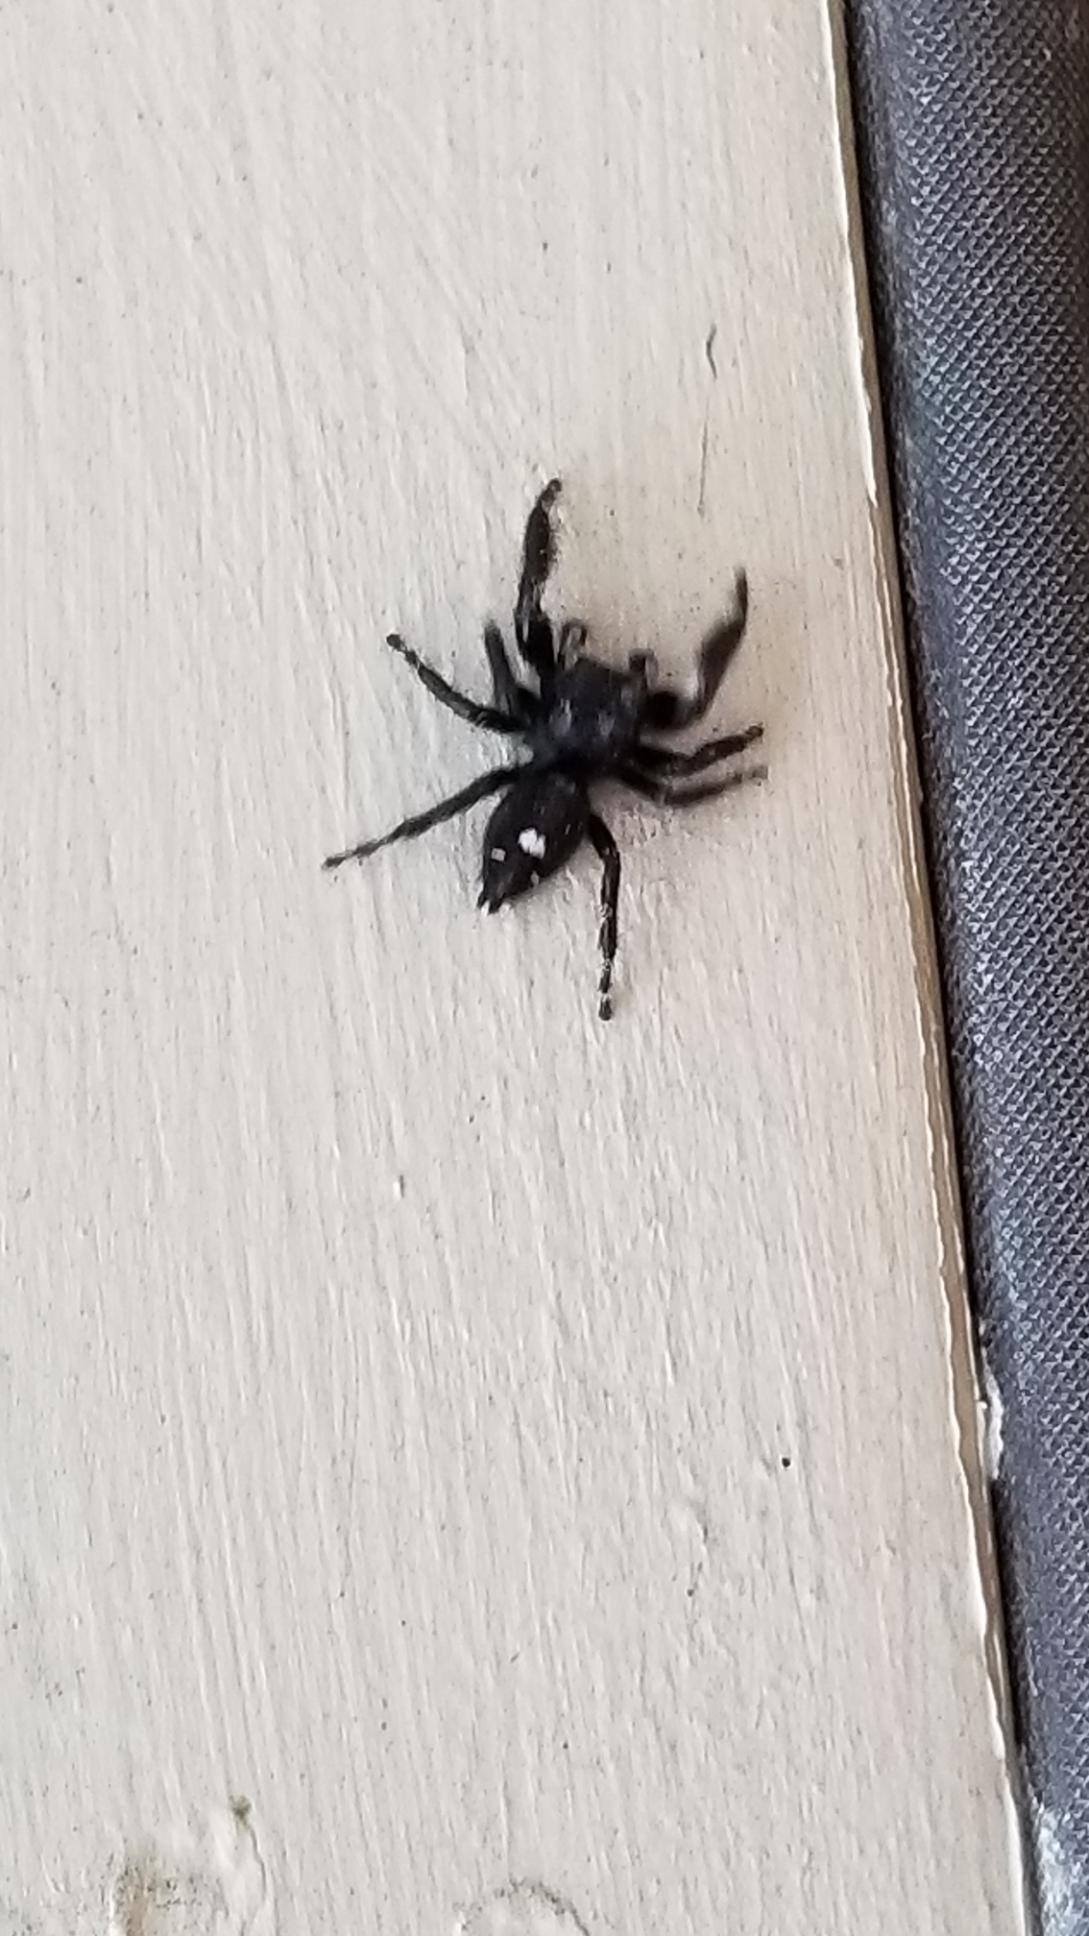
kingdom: Animalia
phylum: Arthropoda
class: Arachnida
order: Araneae
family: Salticidae
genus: Phidippus
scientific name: Phidippus audax
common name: Bold jumper
